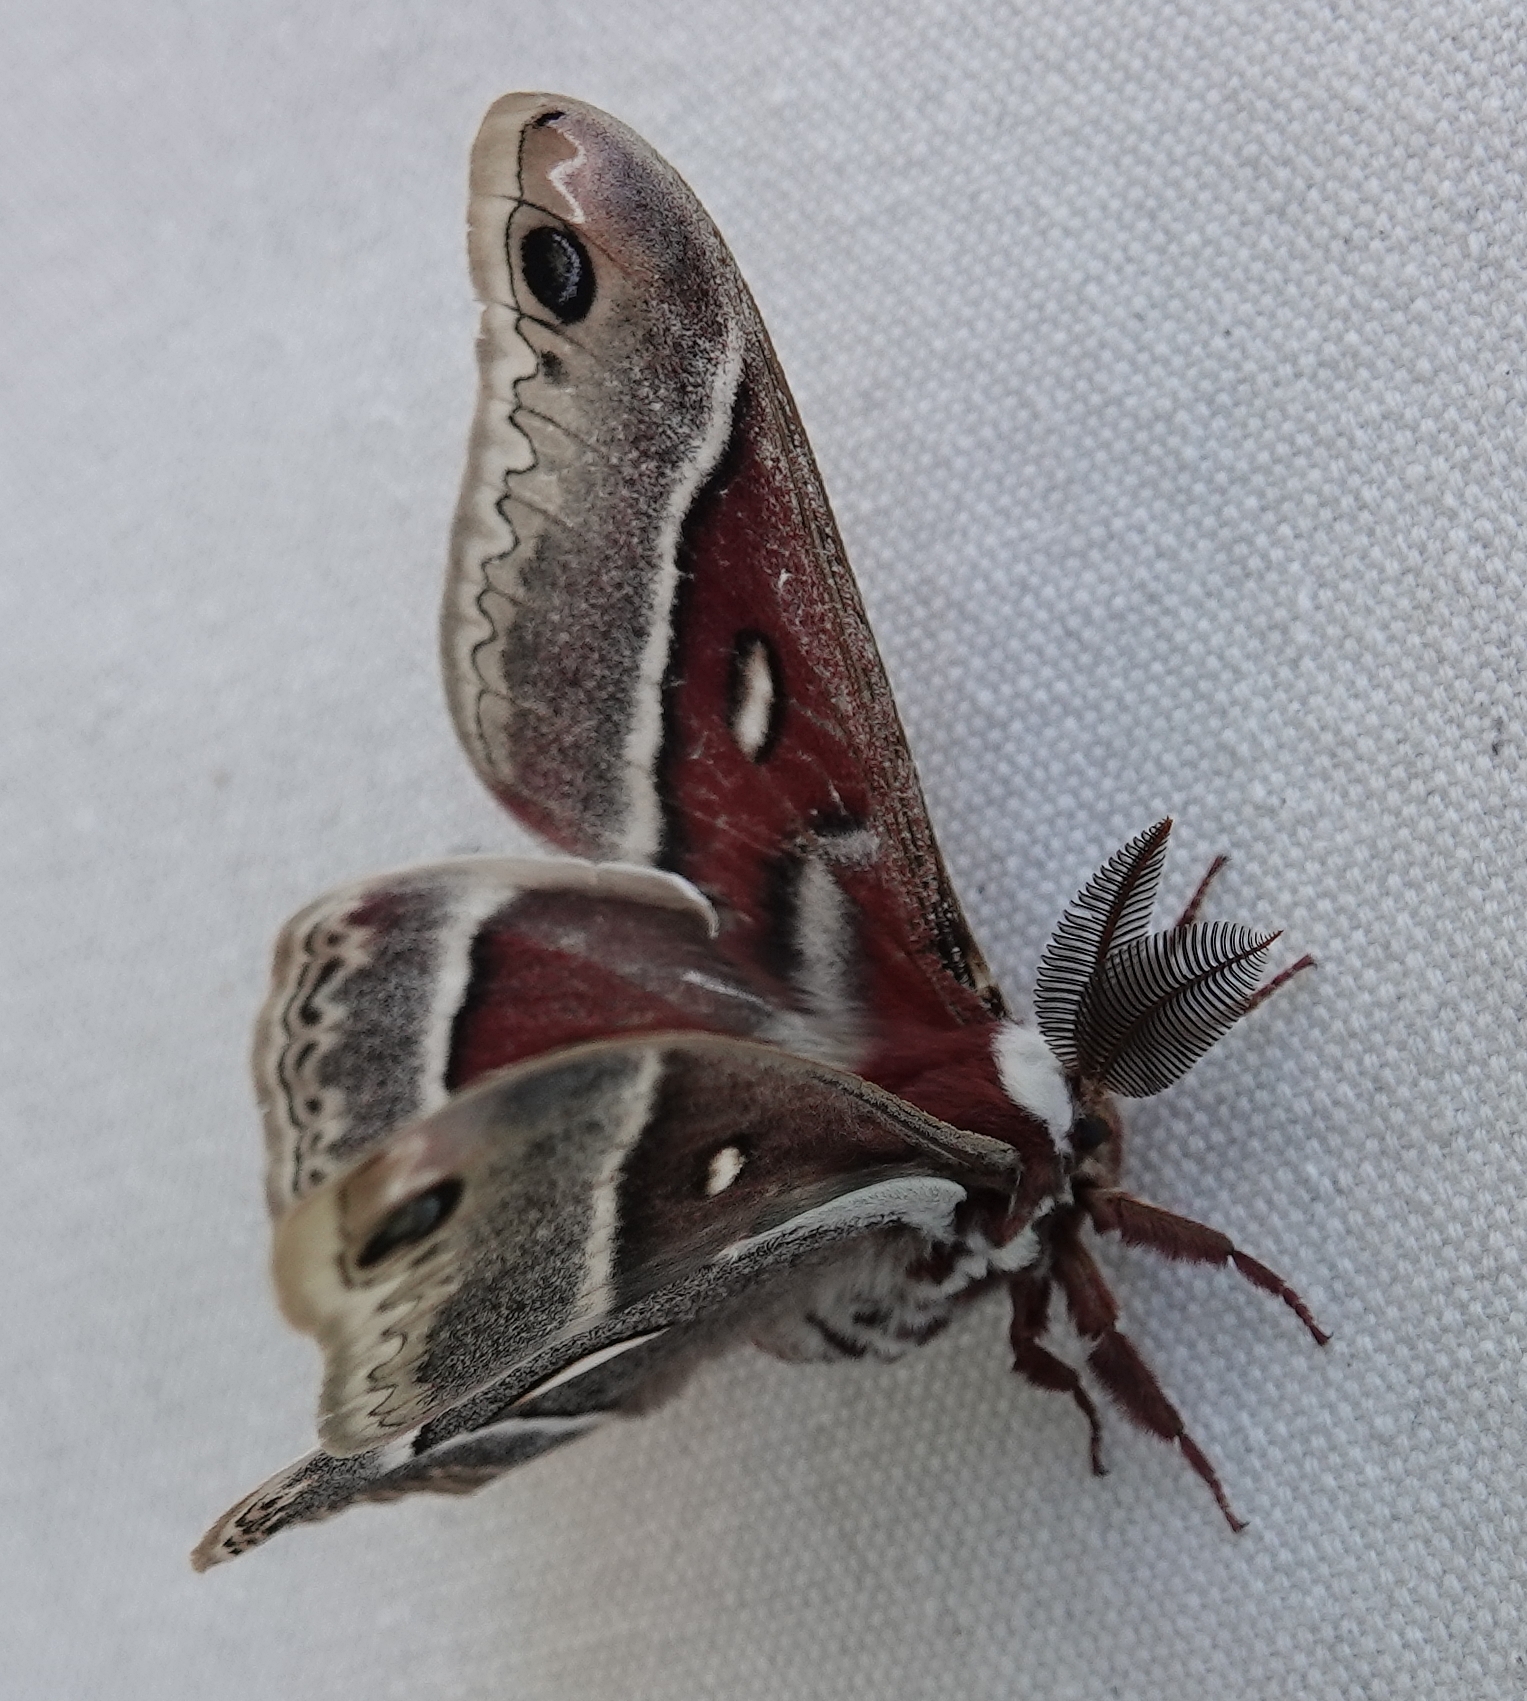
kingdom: Animalia
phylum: Arthropoda
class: Insecta
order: Lepidoptera
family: Saturniidae
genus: Hyalophora
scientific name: Hyalophora gloveri
